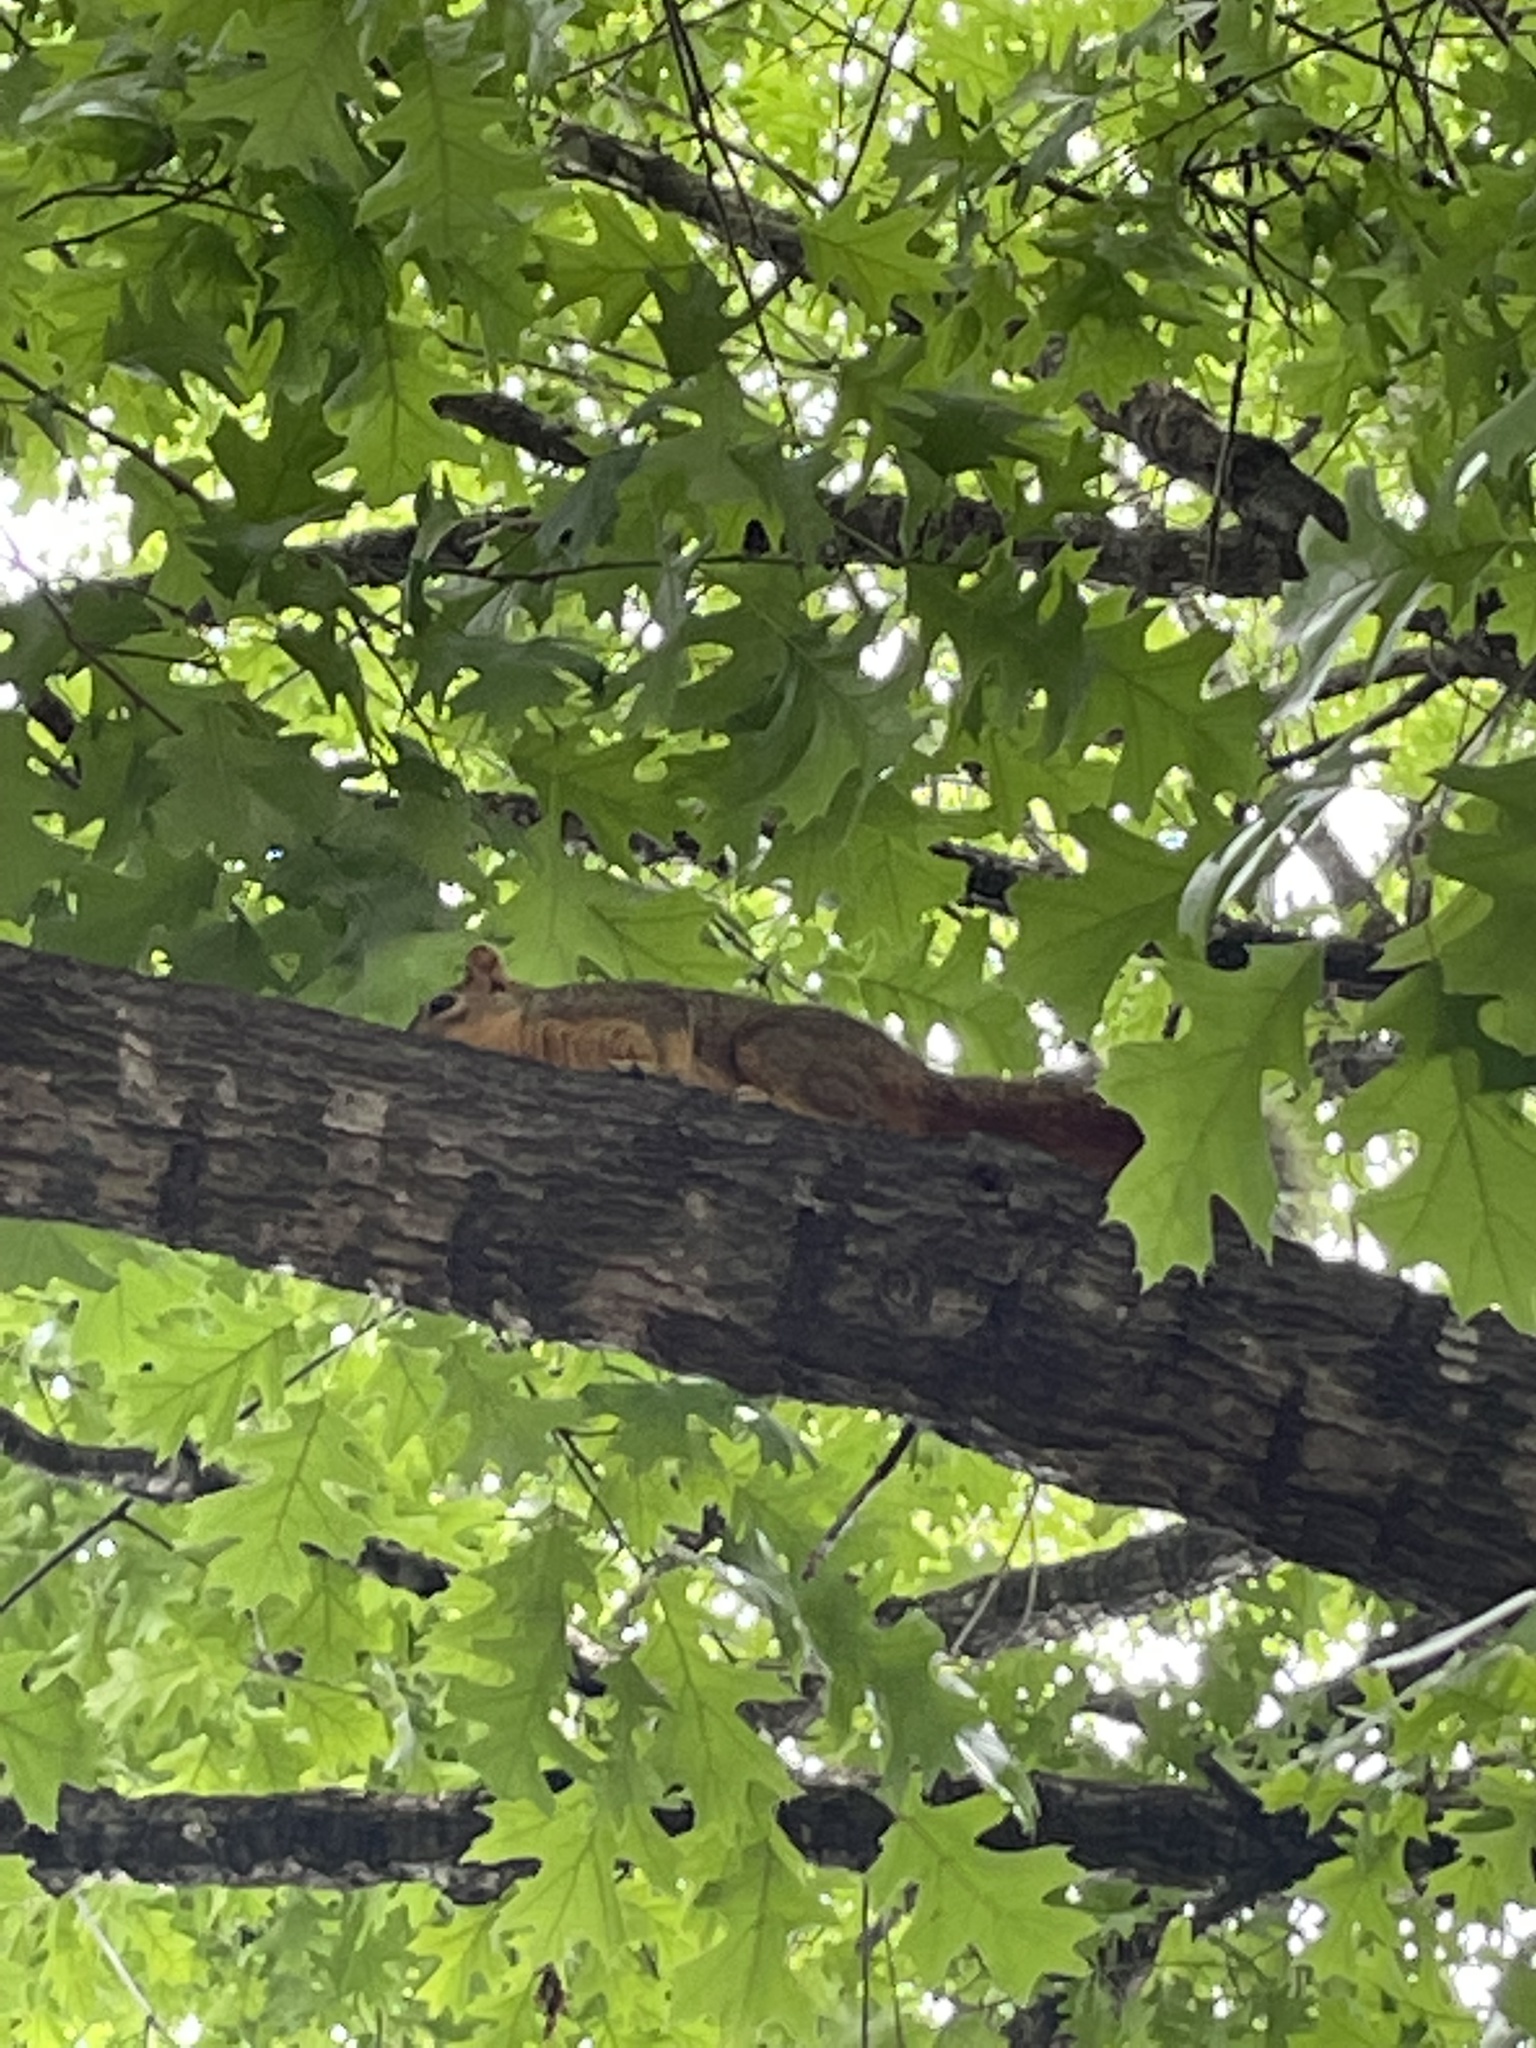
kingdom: Animalia
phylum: Chordata
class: Mammalia
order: Rodentia
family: Sciuridae
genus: Sciurus
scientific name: Sciurus niger
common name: Fox squirrel
